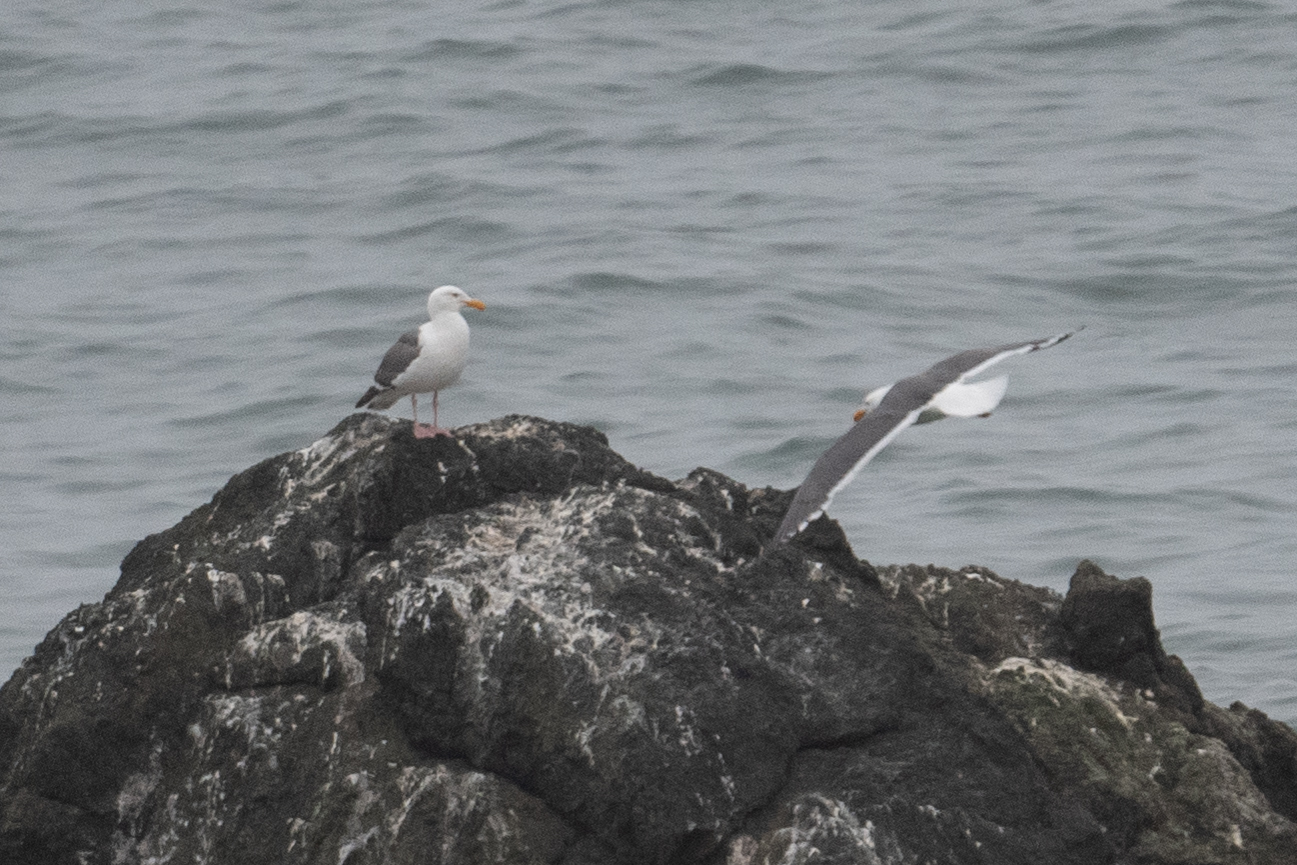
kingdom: Animalia
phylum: Chordata
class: Aves
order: Charadriiformes
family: Laridae
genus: Larus
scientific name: Larus occidentalis
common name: Western gull
